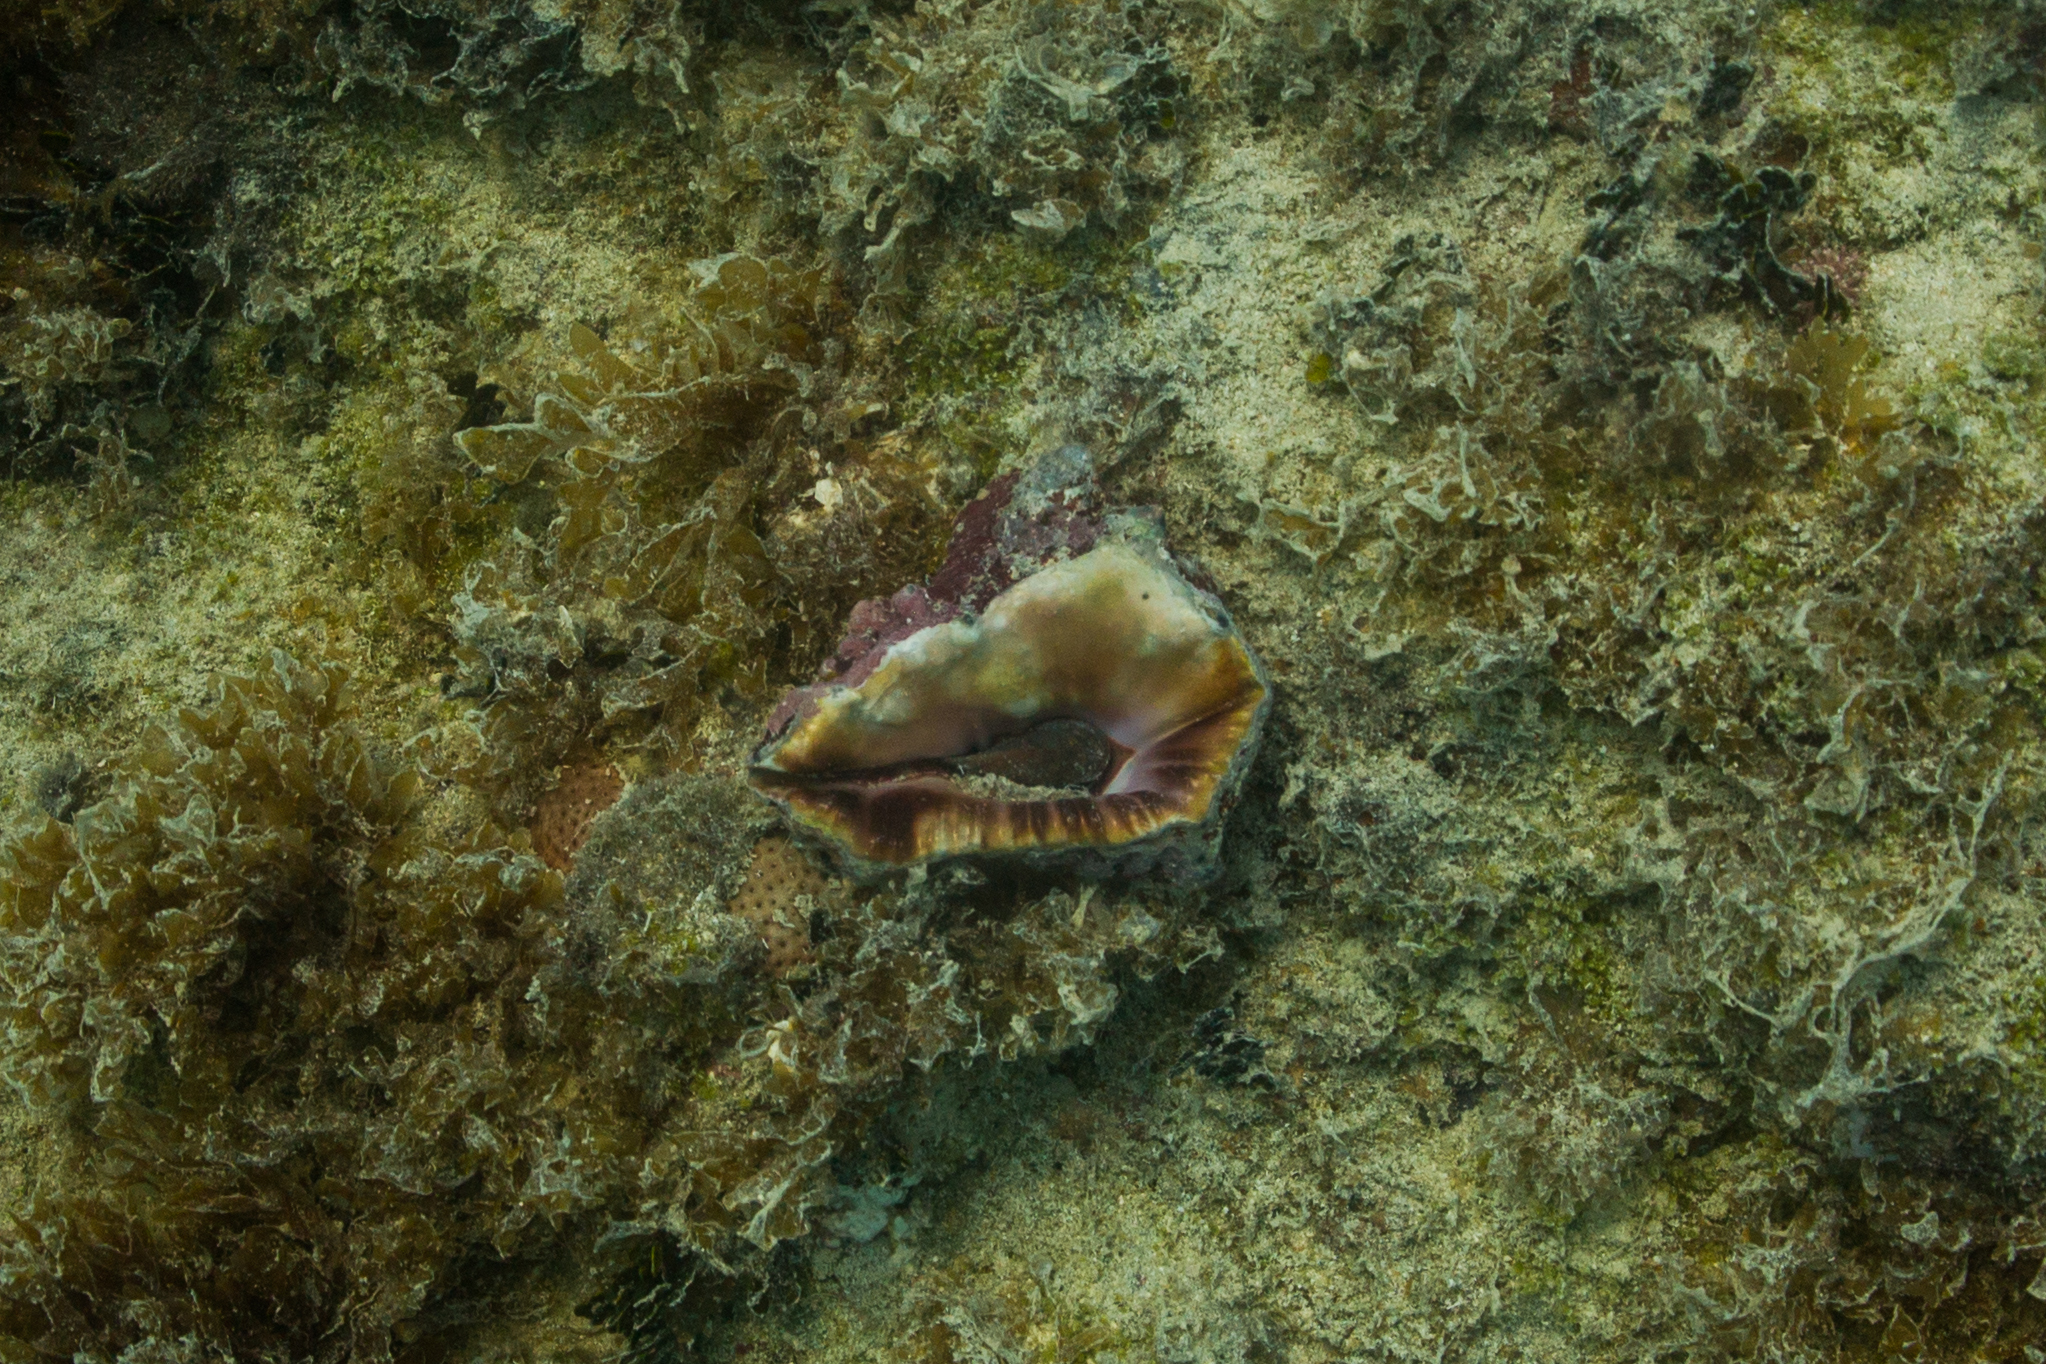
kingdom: Animalia
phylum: Mollusca
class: Gastropoda
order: Neogastropoda
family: Turbinellidae
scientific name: Turbinellidae
